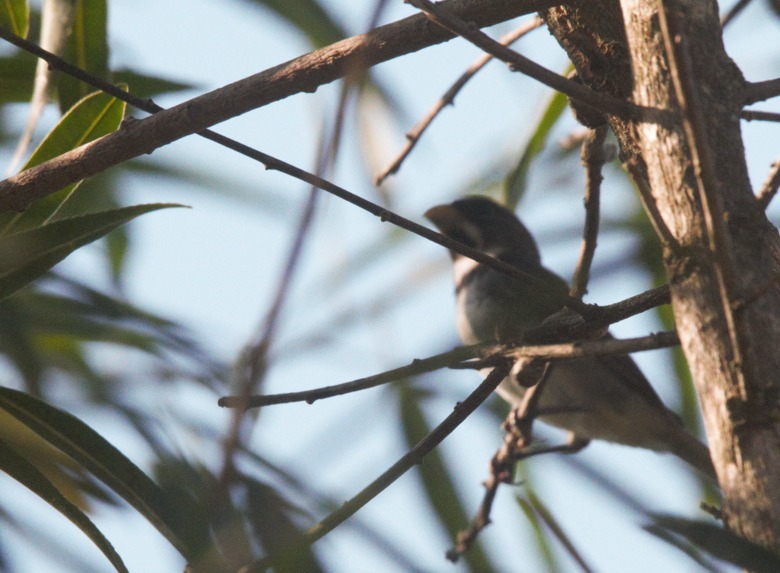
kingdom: Animalia
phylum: Chordata
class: Aves
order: Passeriformes
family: Thraupidae
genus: Sporophila
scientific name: Sporophila caerulescens
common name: Double-collared seedeater
